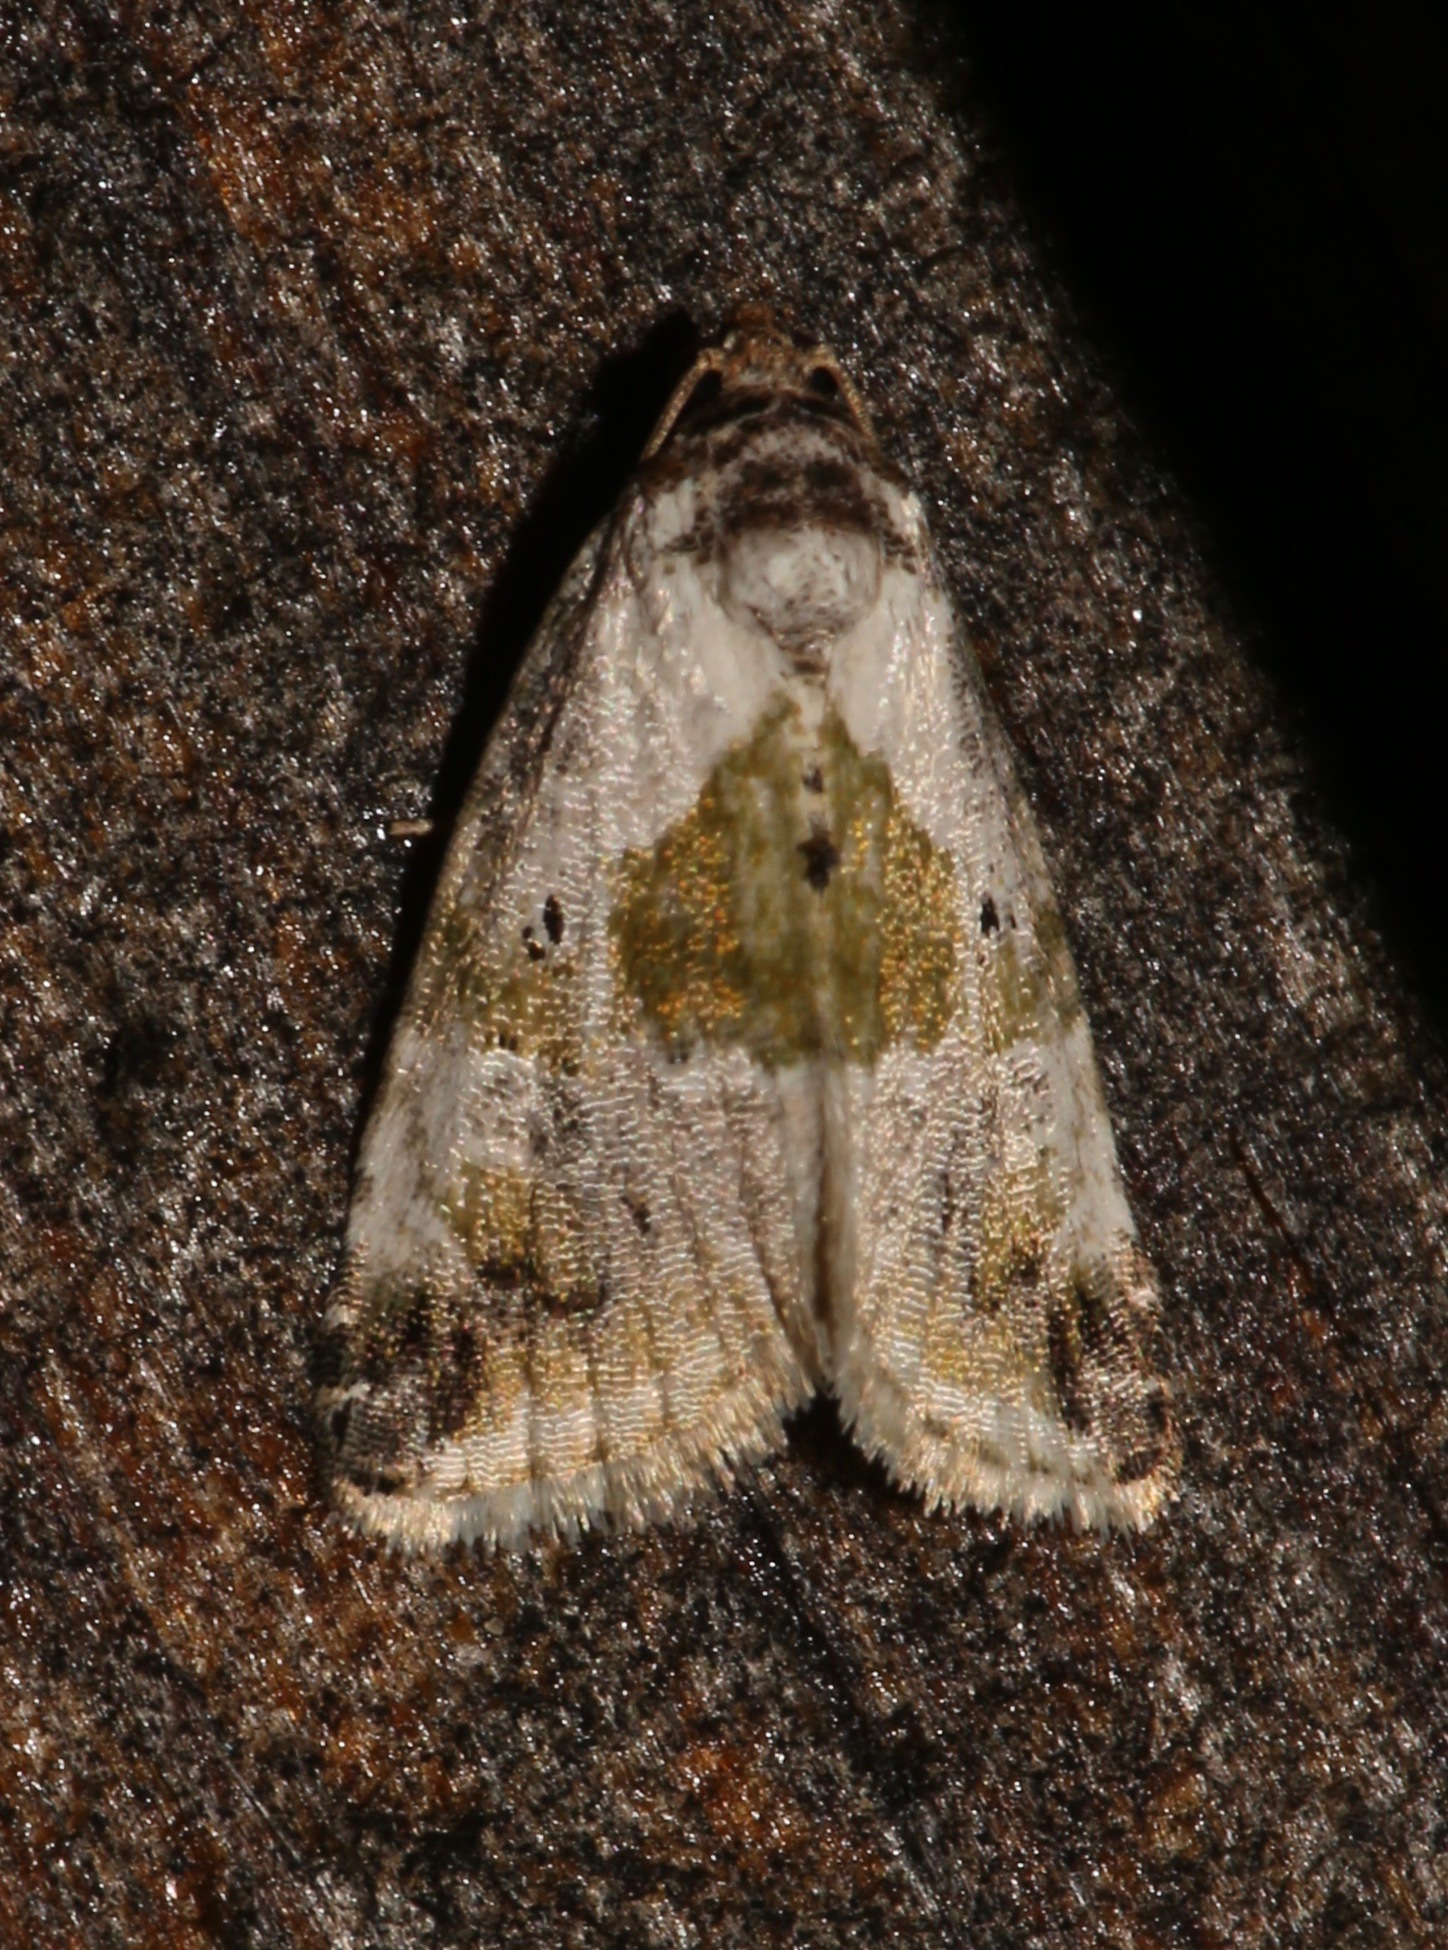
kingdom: Animalia
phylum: Arthropoda
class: Insecta
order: Lepidoptera
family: Noctuidae
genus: Maliattha
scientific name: Maliattha synochitis
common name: Black-dotted glyph
